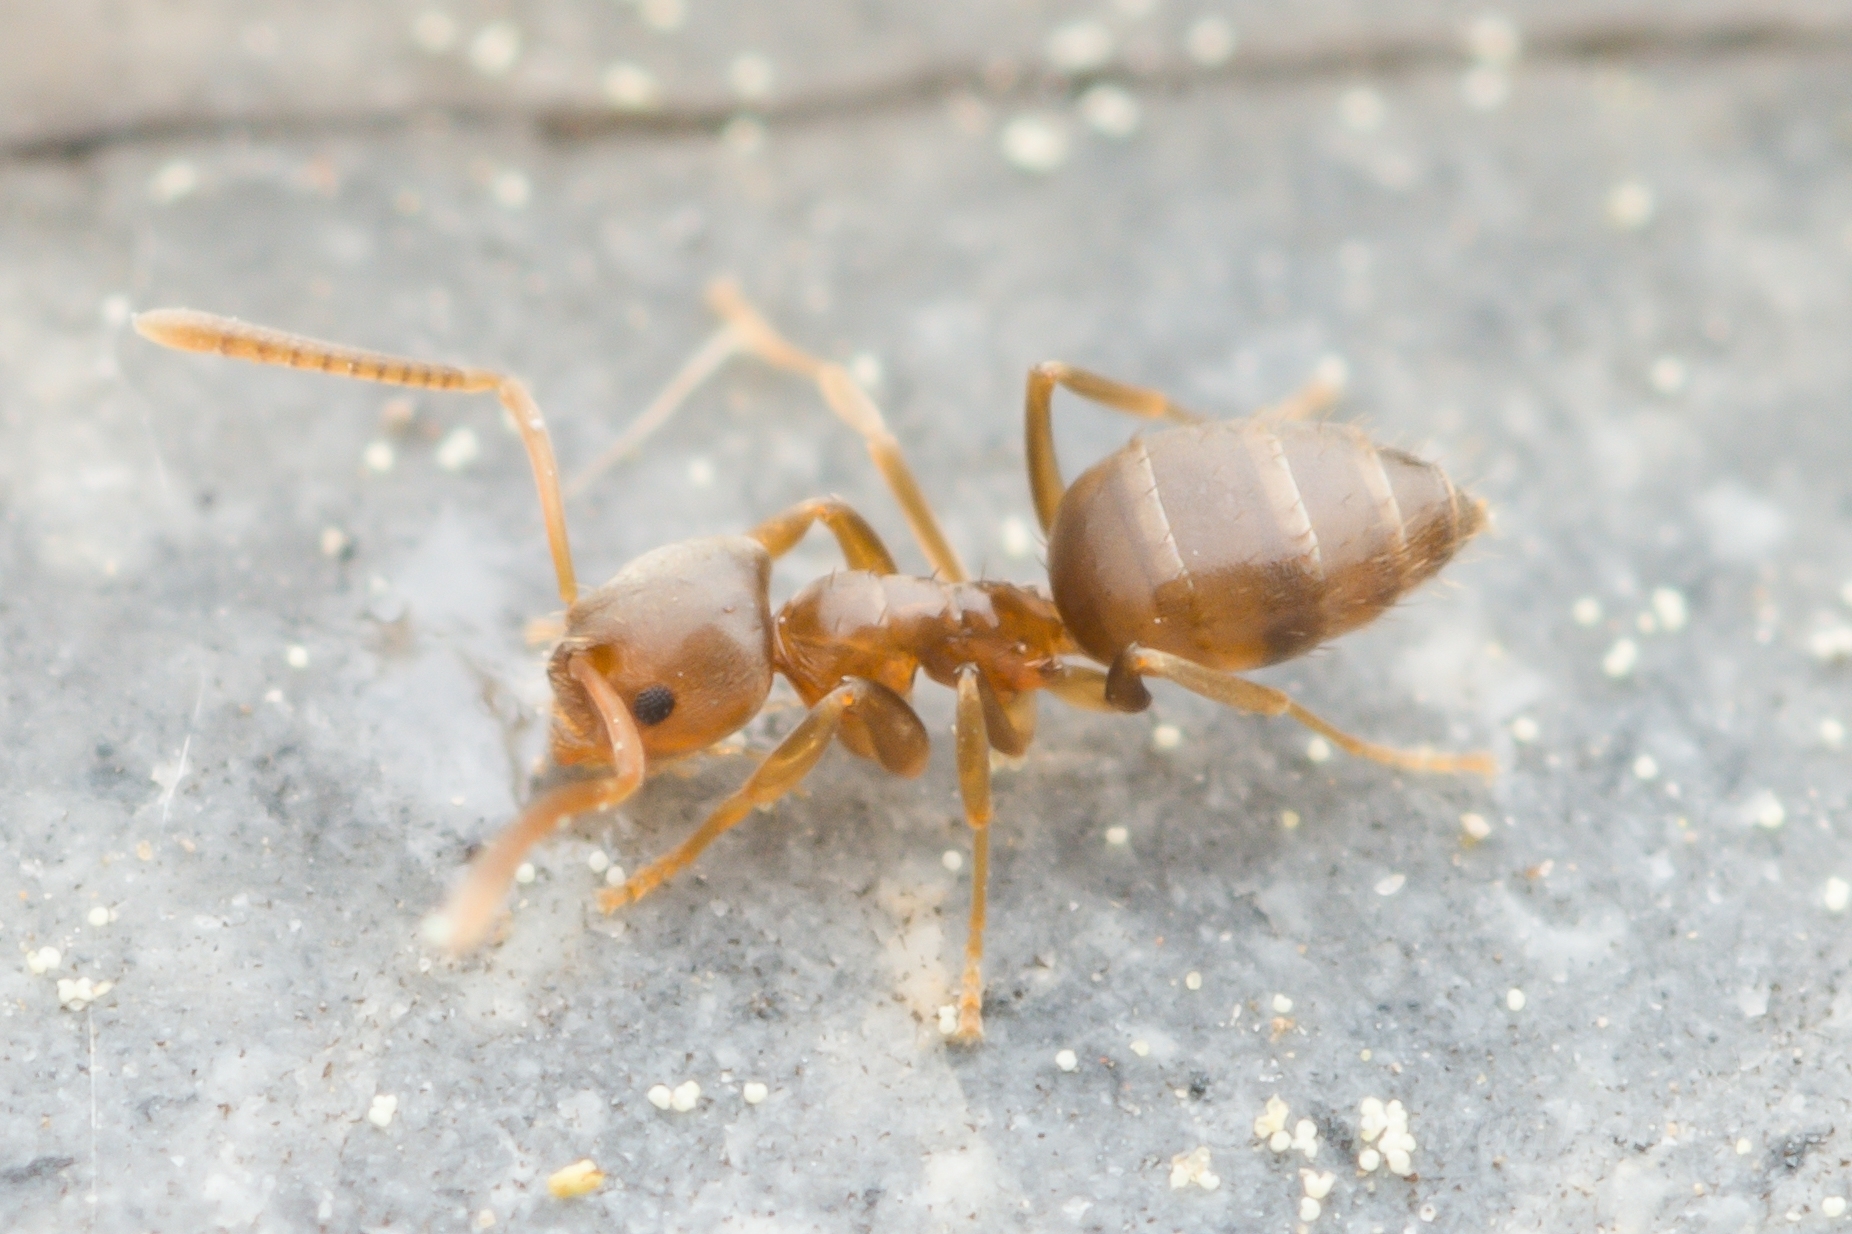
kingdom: Animalia
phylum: Arthropoda
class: Insecta
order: Hymenoptera
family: Formicidae
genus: Paraparatrechina
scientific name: Paraparatrechina
